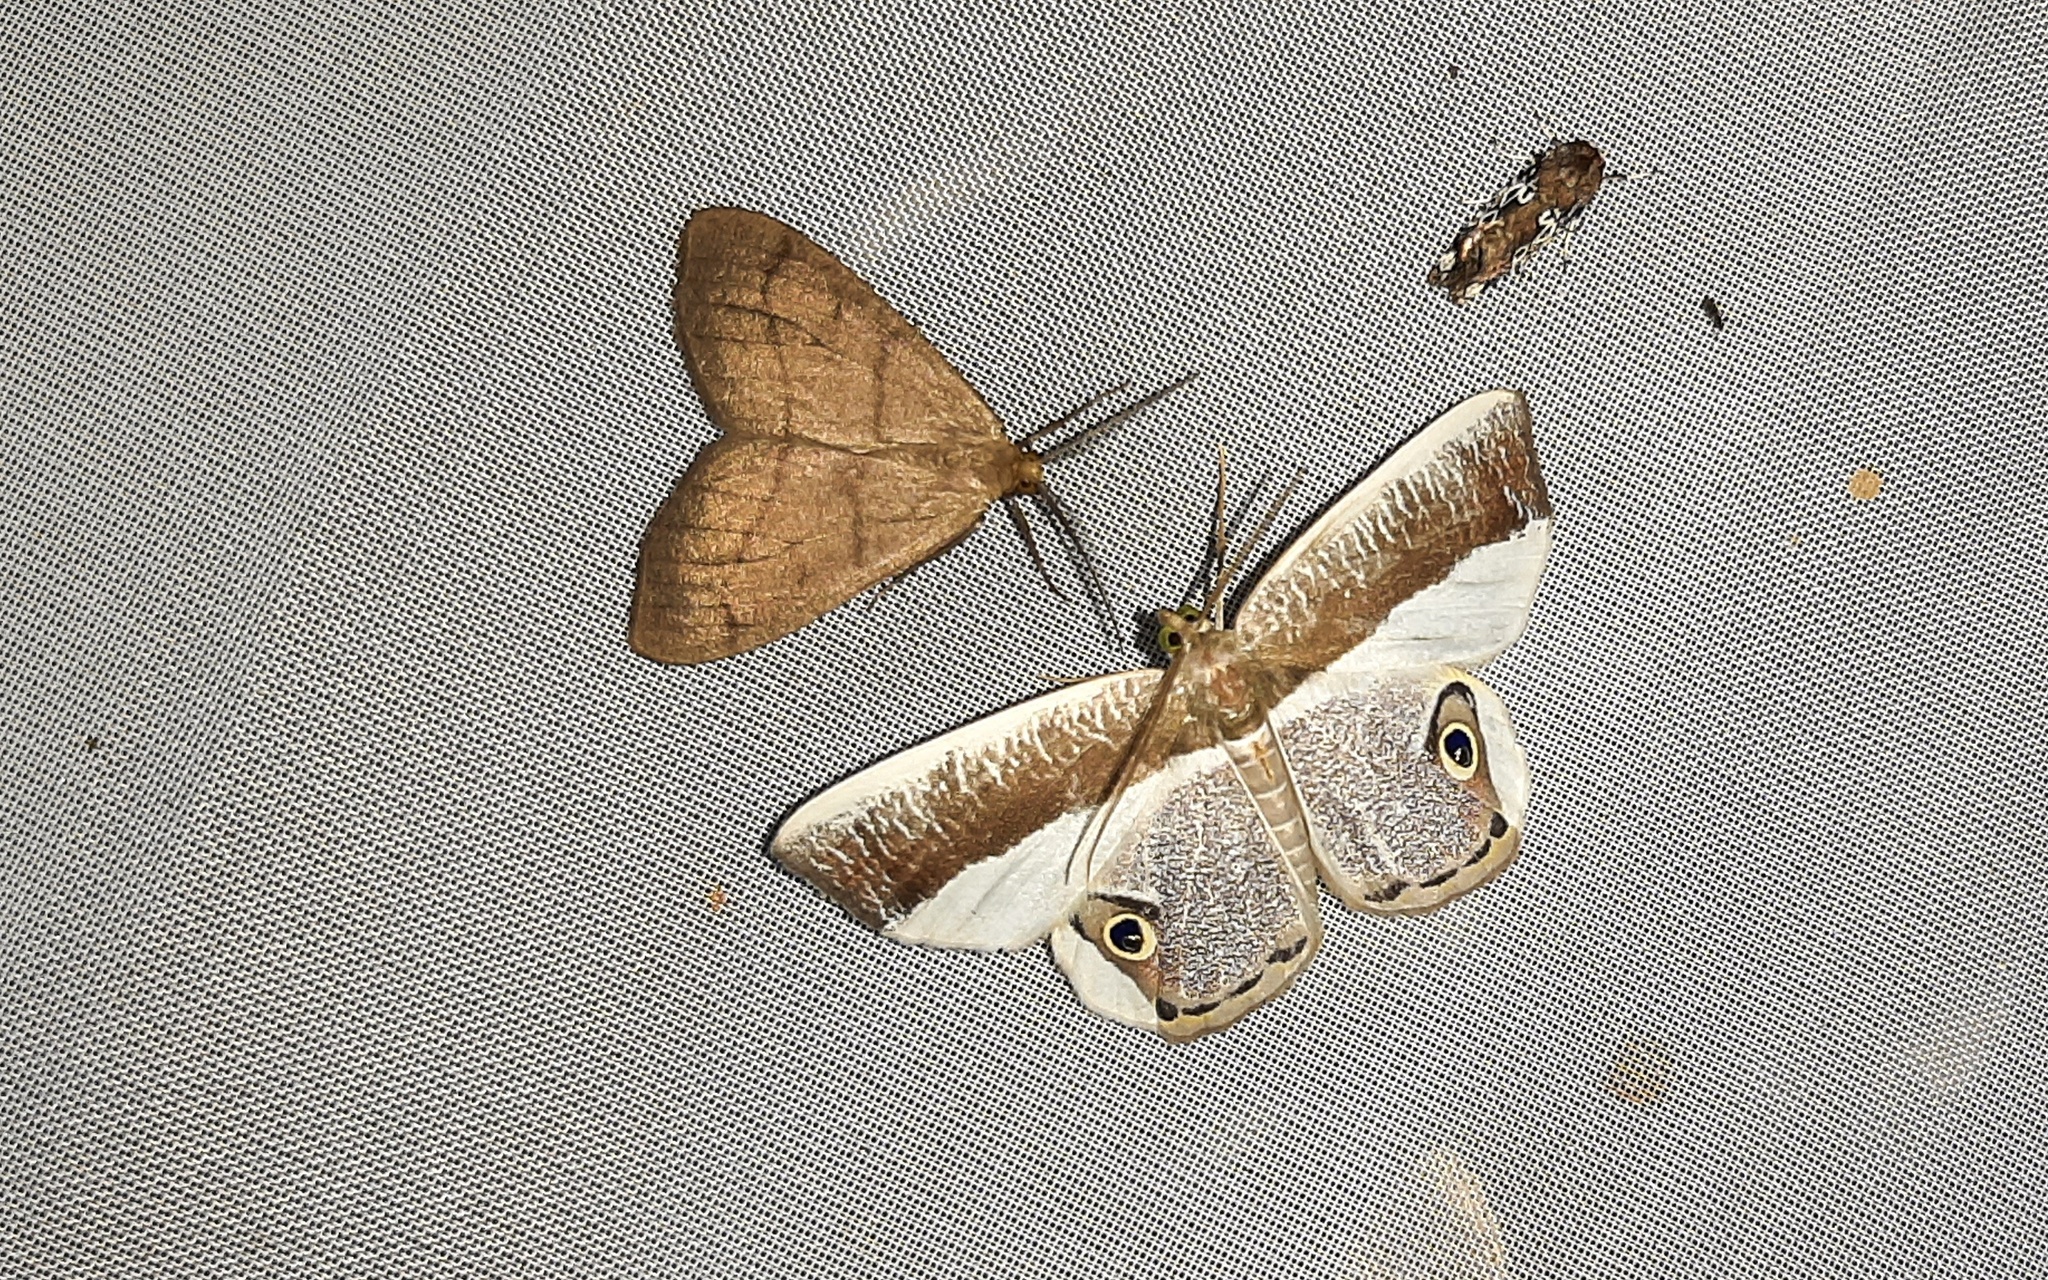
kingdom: Animalia
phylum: Arthropoda
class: Insecta
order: Lepidoptera
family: Geometridae
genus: Opisthoxia
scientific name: Opisthoxia laticlava
